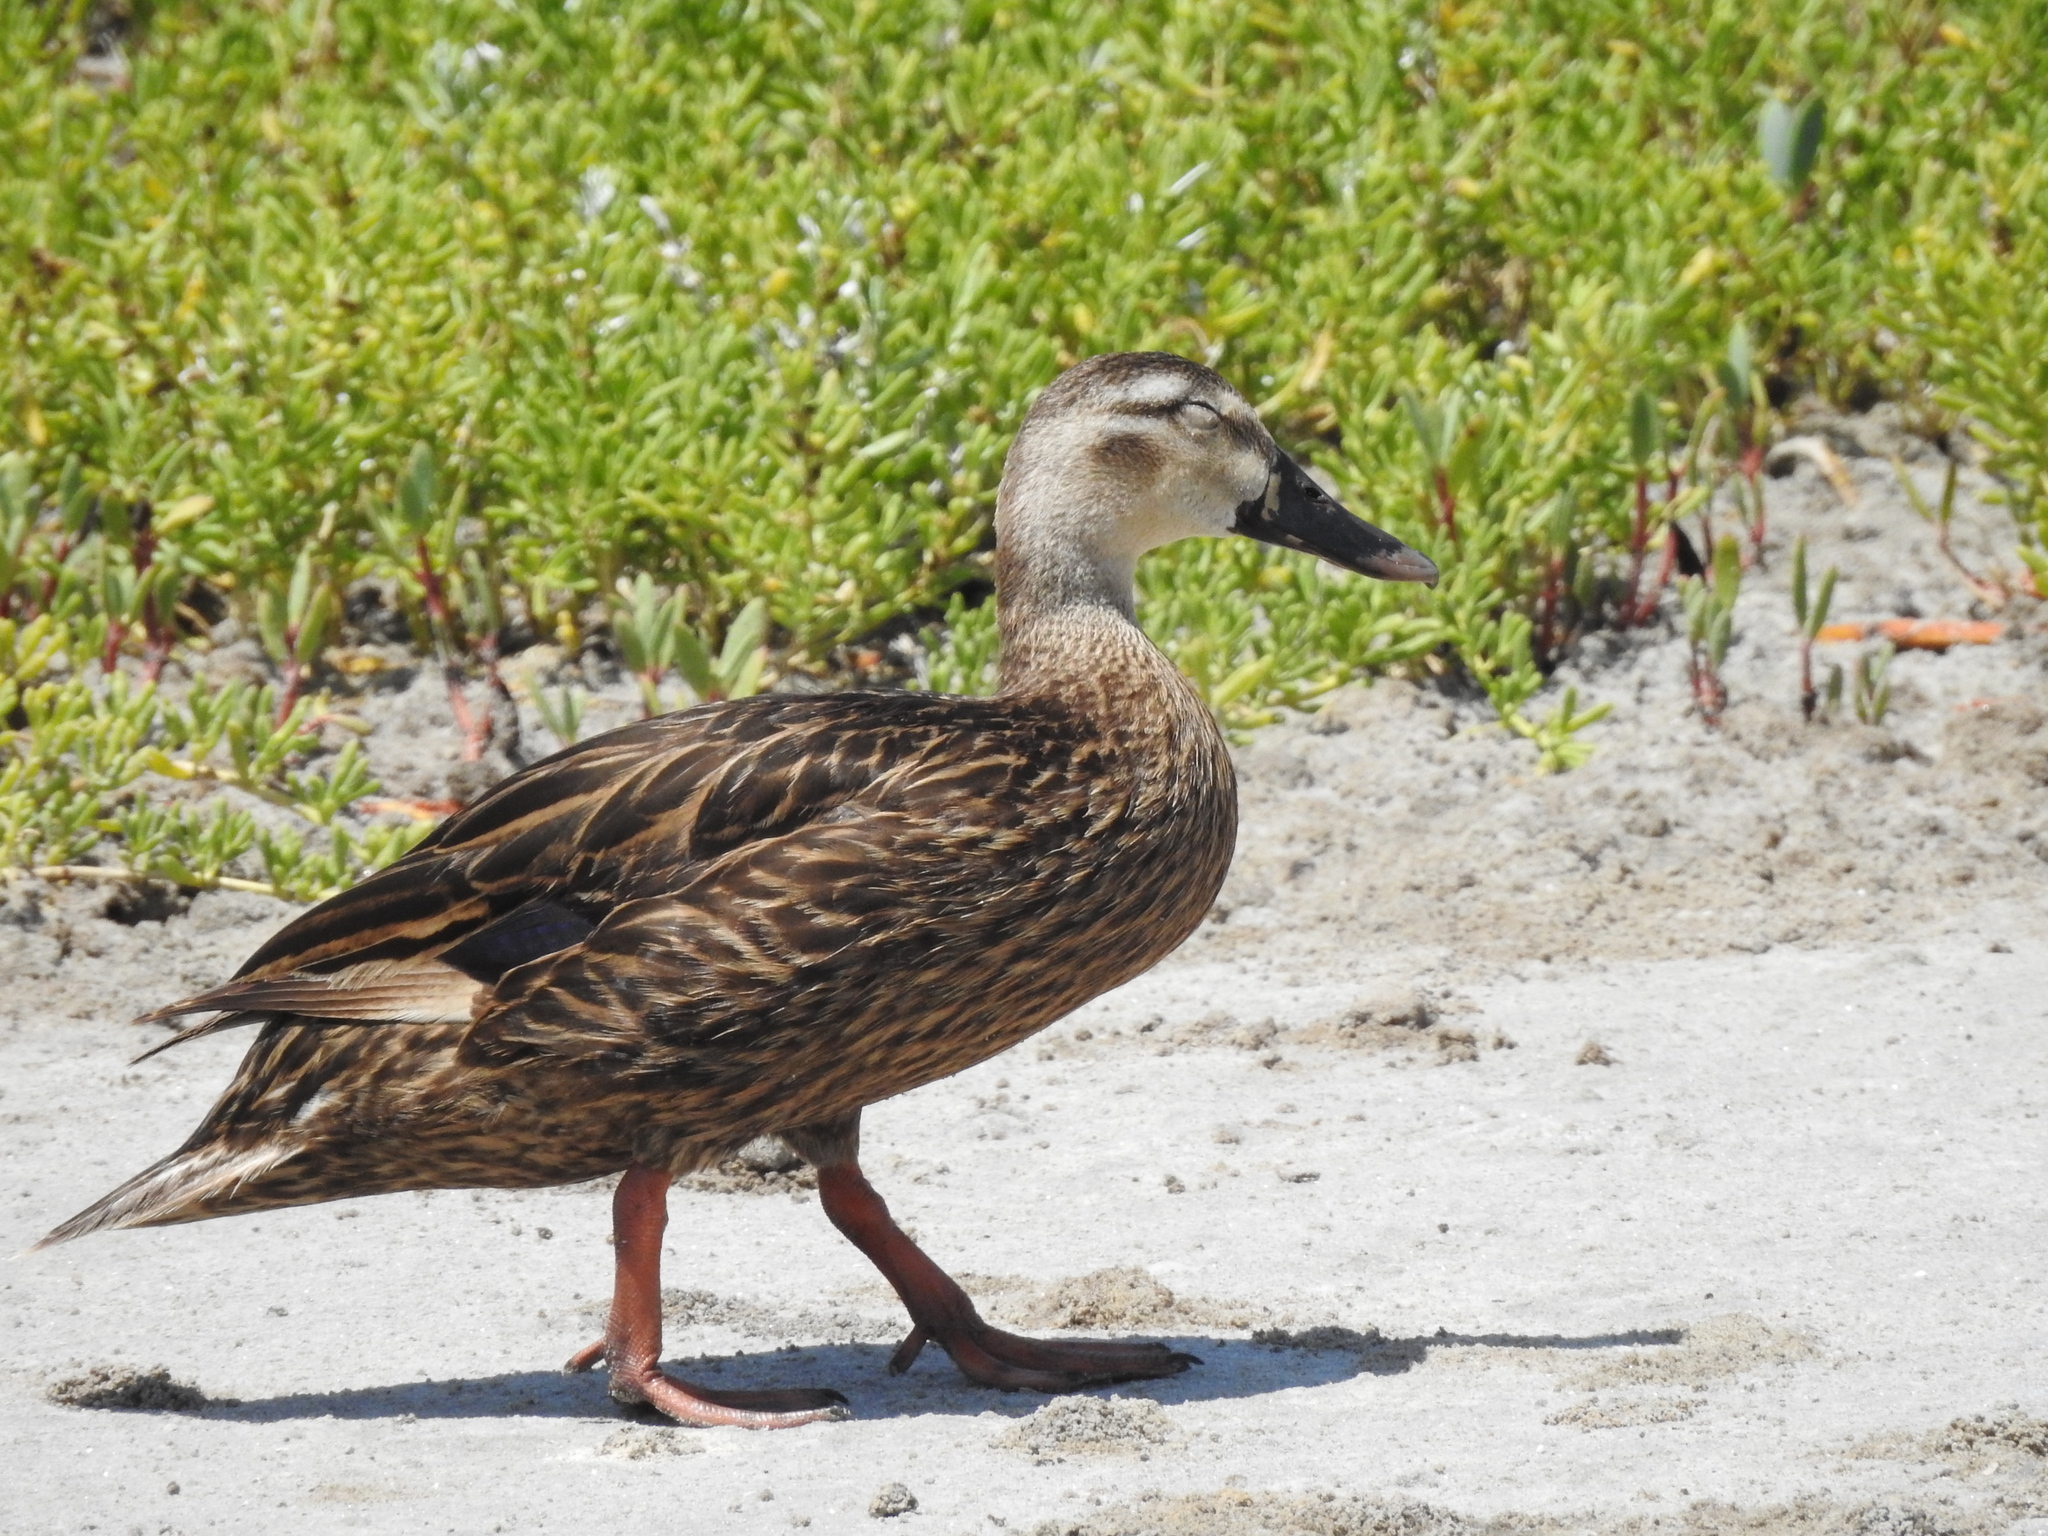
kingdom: Animalia
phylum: Chordata
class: Aves
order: Anseriformes
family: Anatidae
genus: Anas
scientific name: Anas fulvigula
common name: Mottled duck
